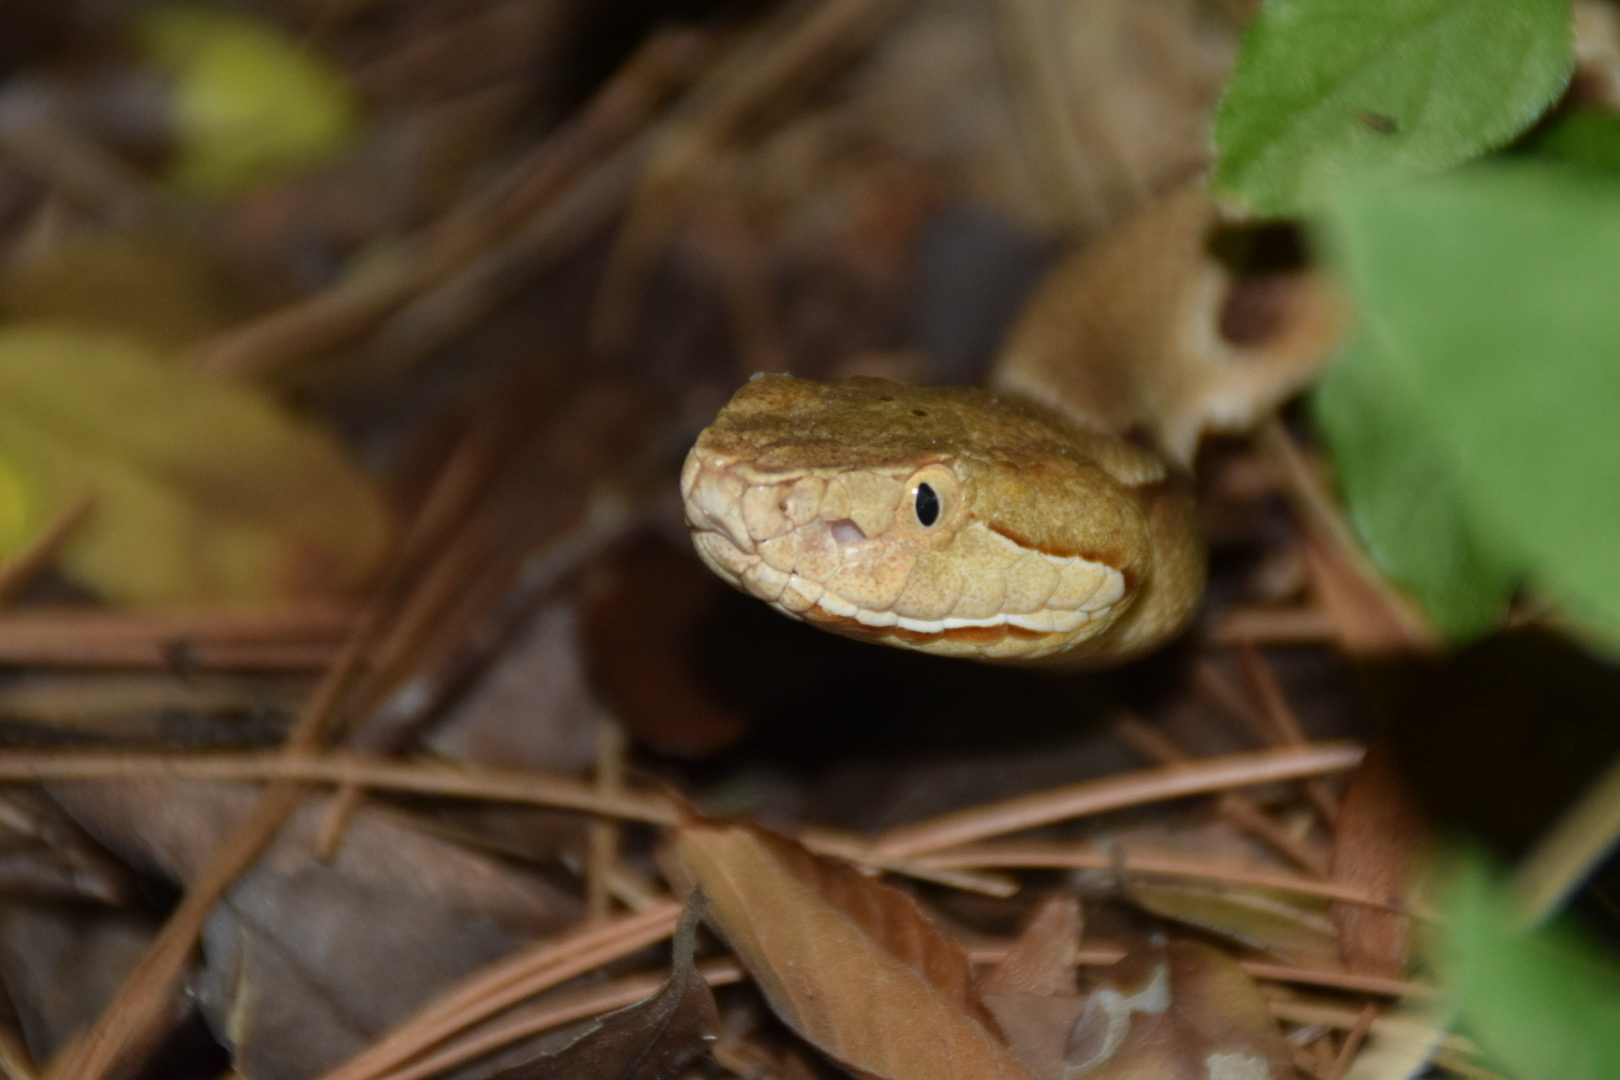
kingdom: Animalia
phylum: Chordata
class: Squamata
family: Viperidae
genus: Agkistrodon
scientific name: Agkistrodon contortrix
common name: Northern copperhead
